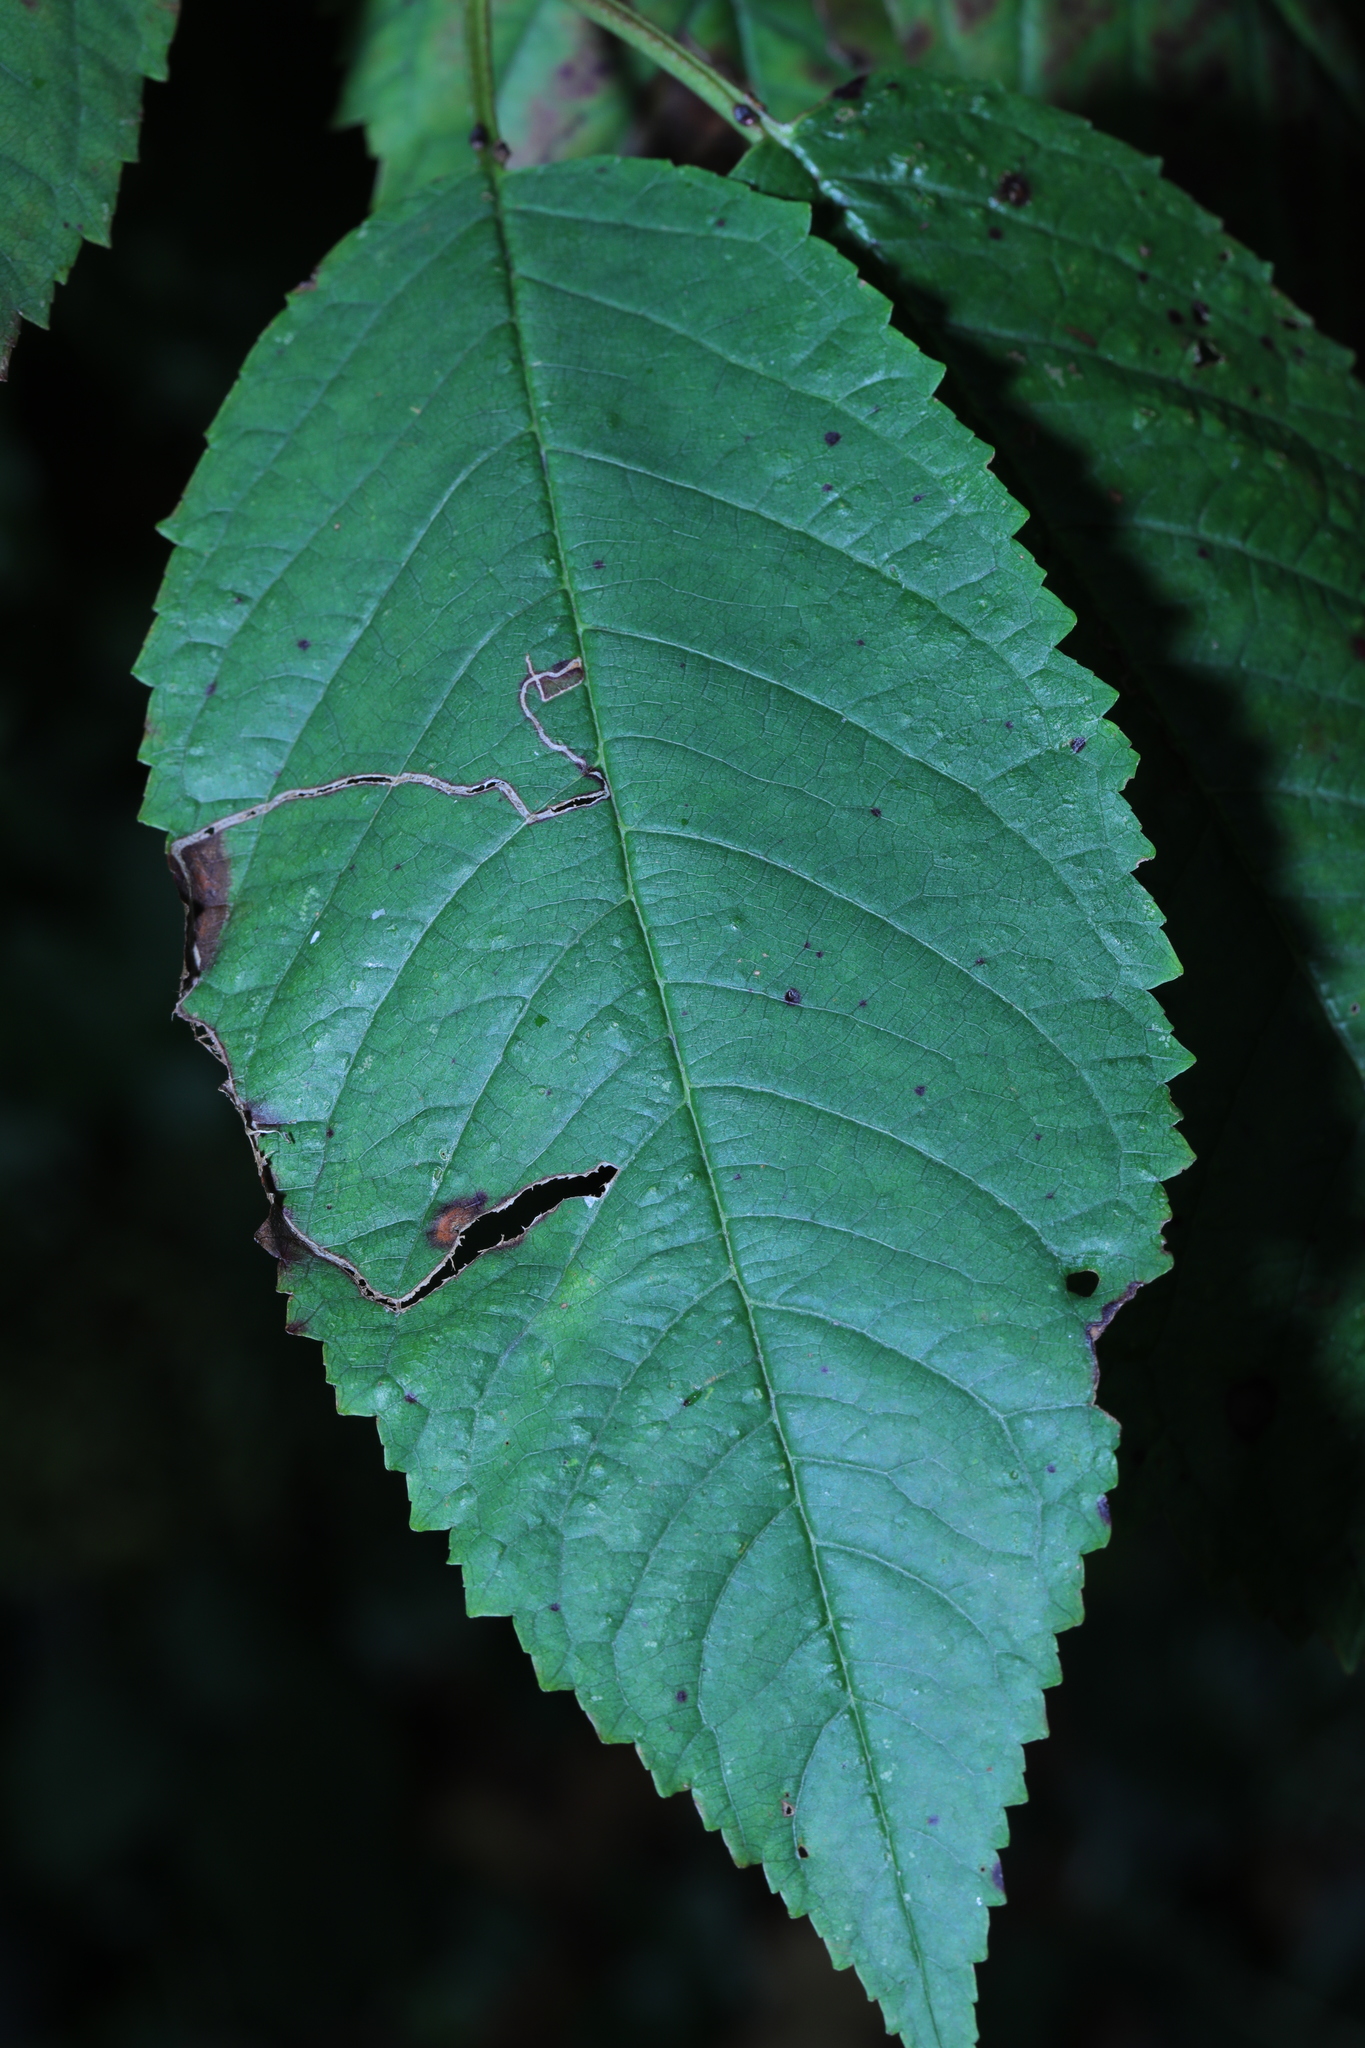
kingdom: Animalia
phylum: Arthropoda
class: Insecta
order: Lepidoptera
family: Lyonetiidae
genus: Lyonetia
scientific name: Lyonetia clerkella
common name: Apple leaf miner
